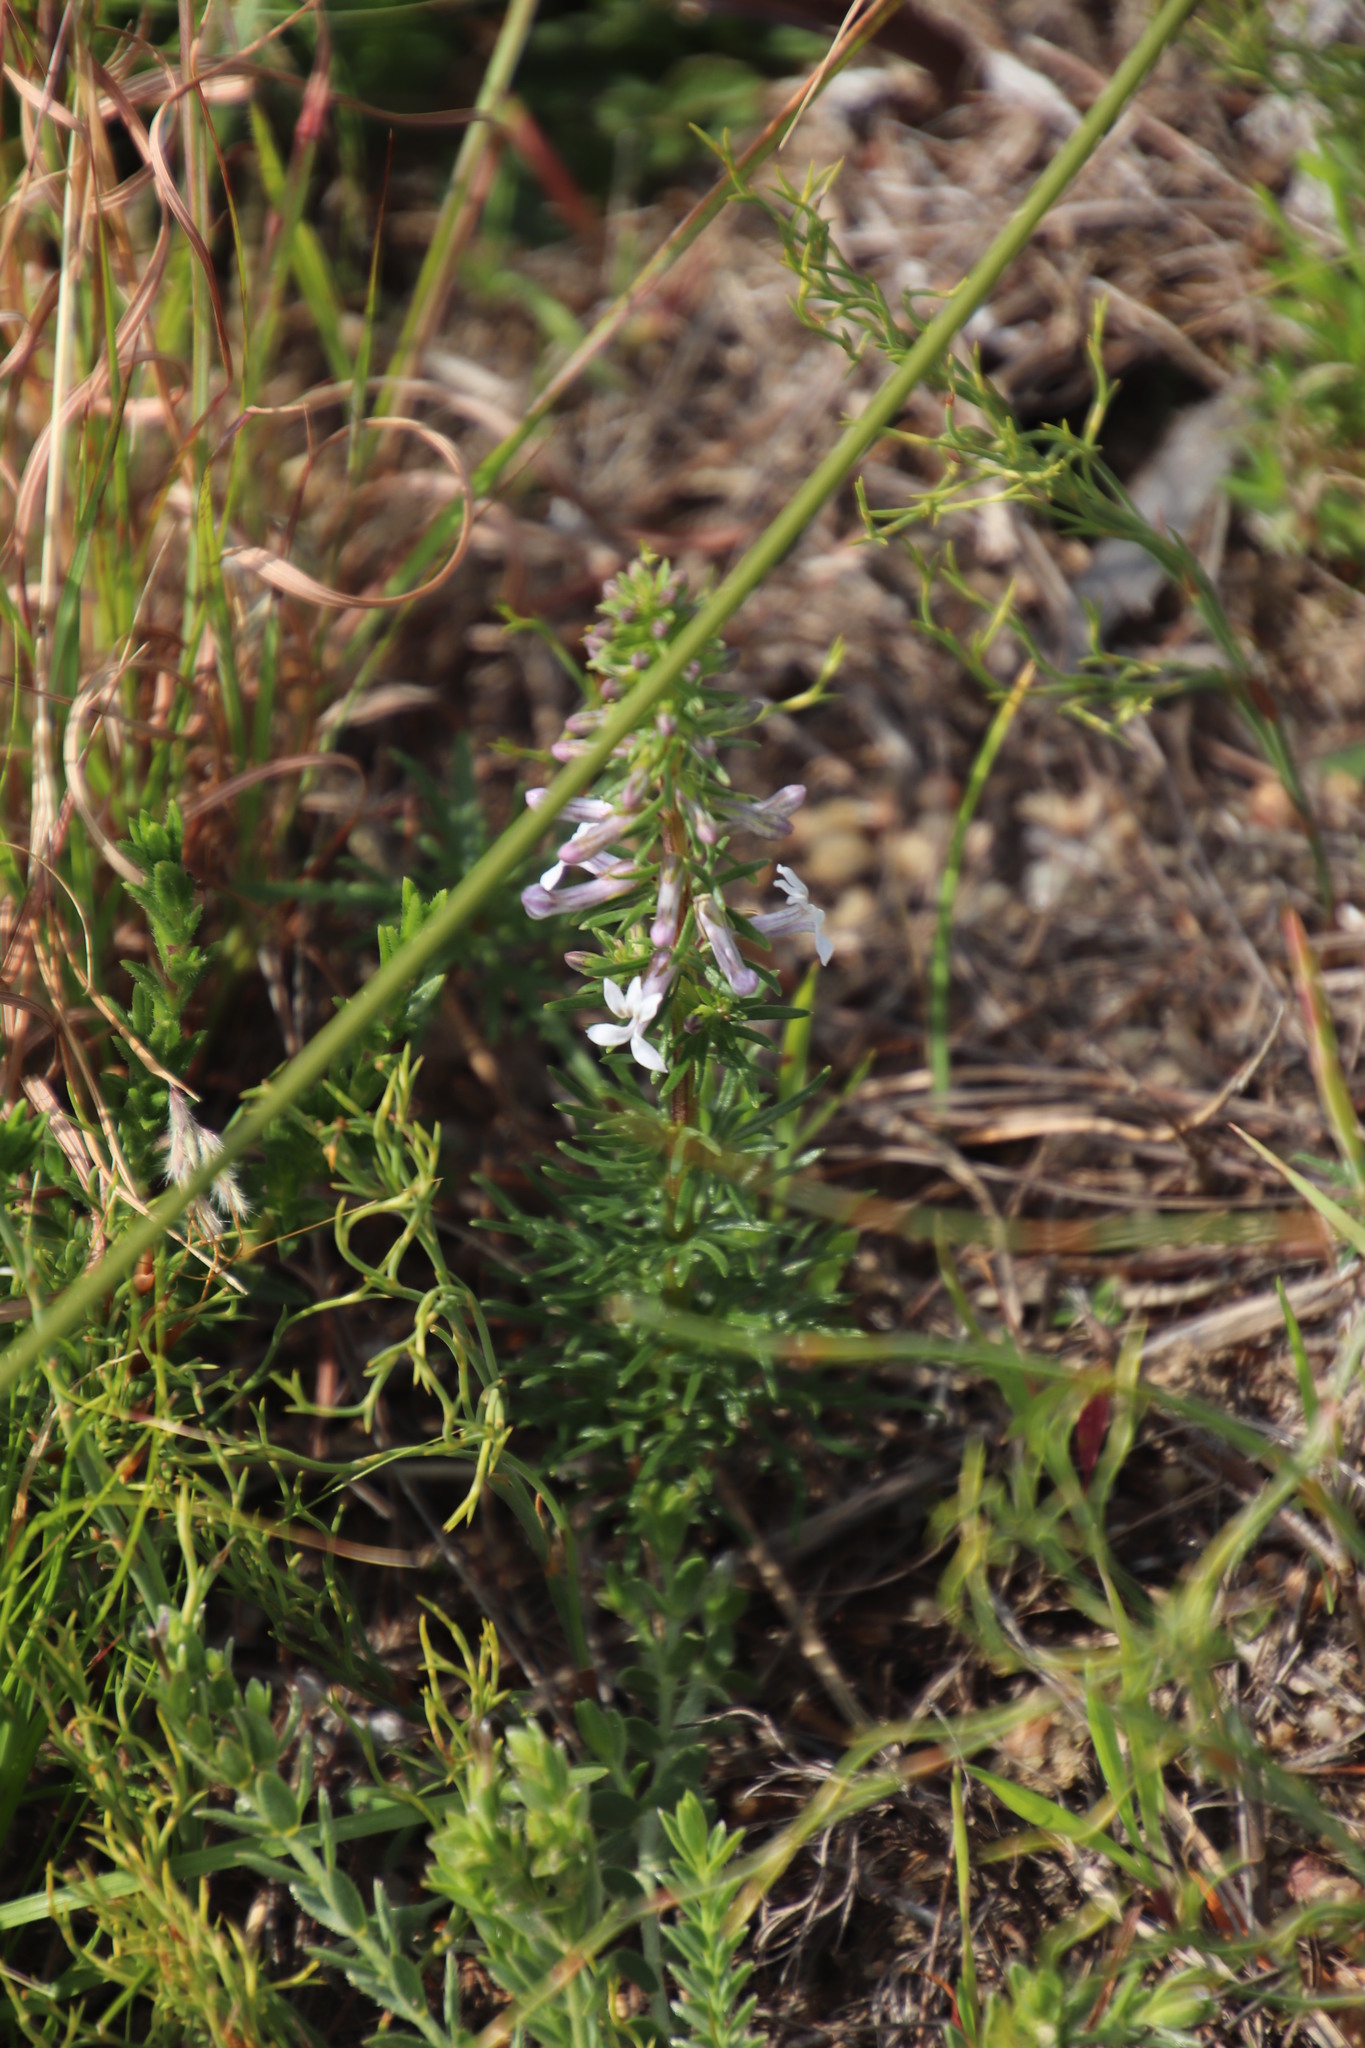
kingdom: Plantae
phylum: Tracheophyta
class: Magnoliopsida
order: Asterales
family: Campanulaceae
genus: Cyphia
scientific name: Cyphia bulbosa
